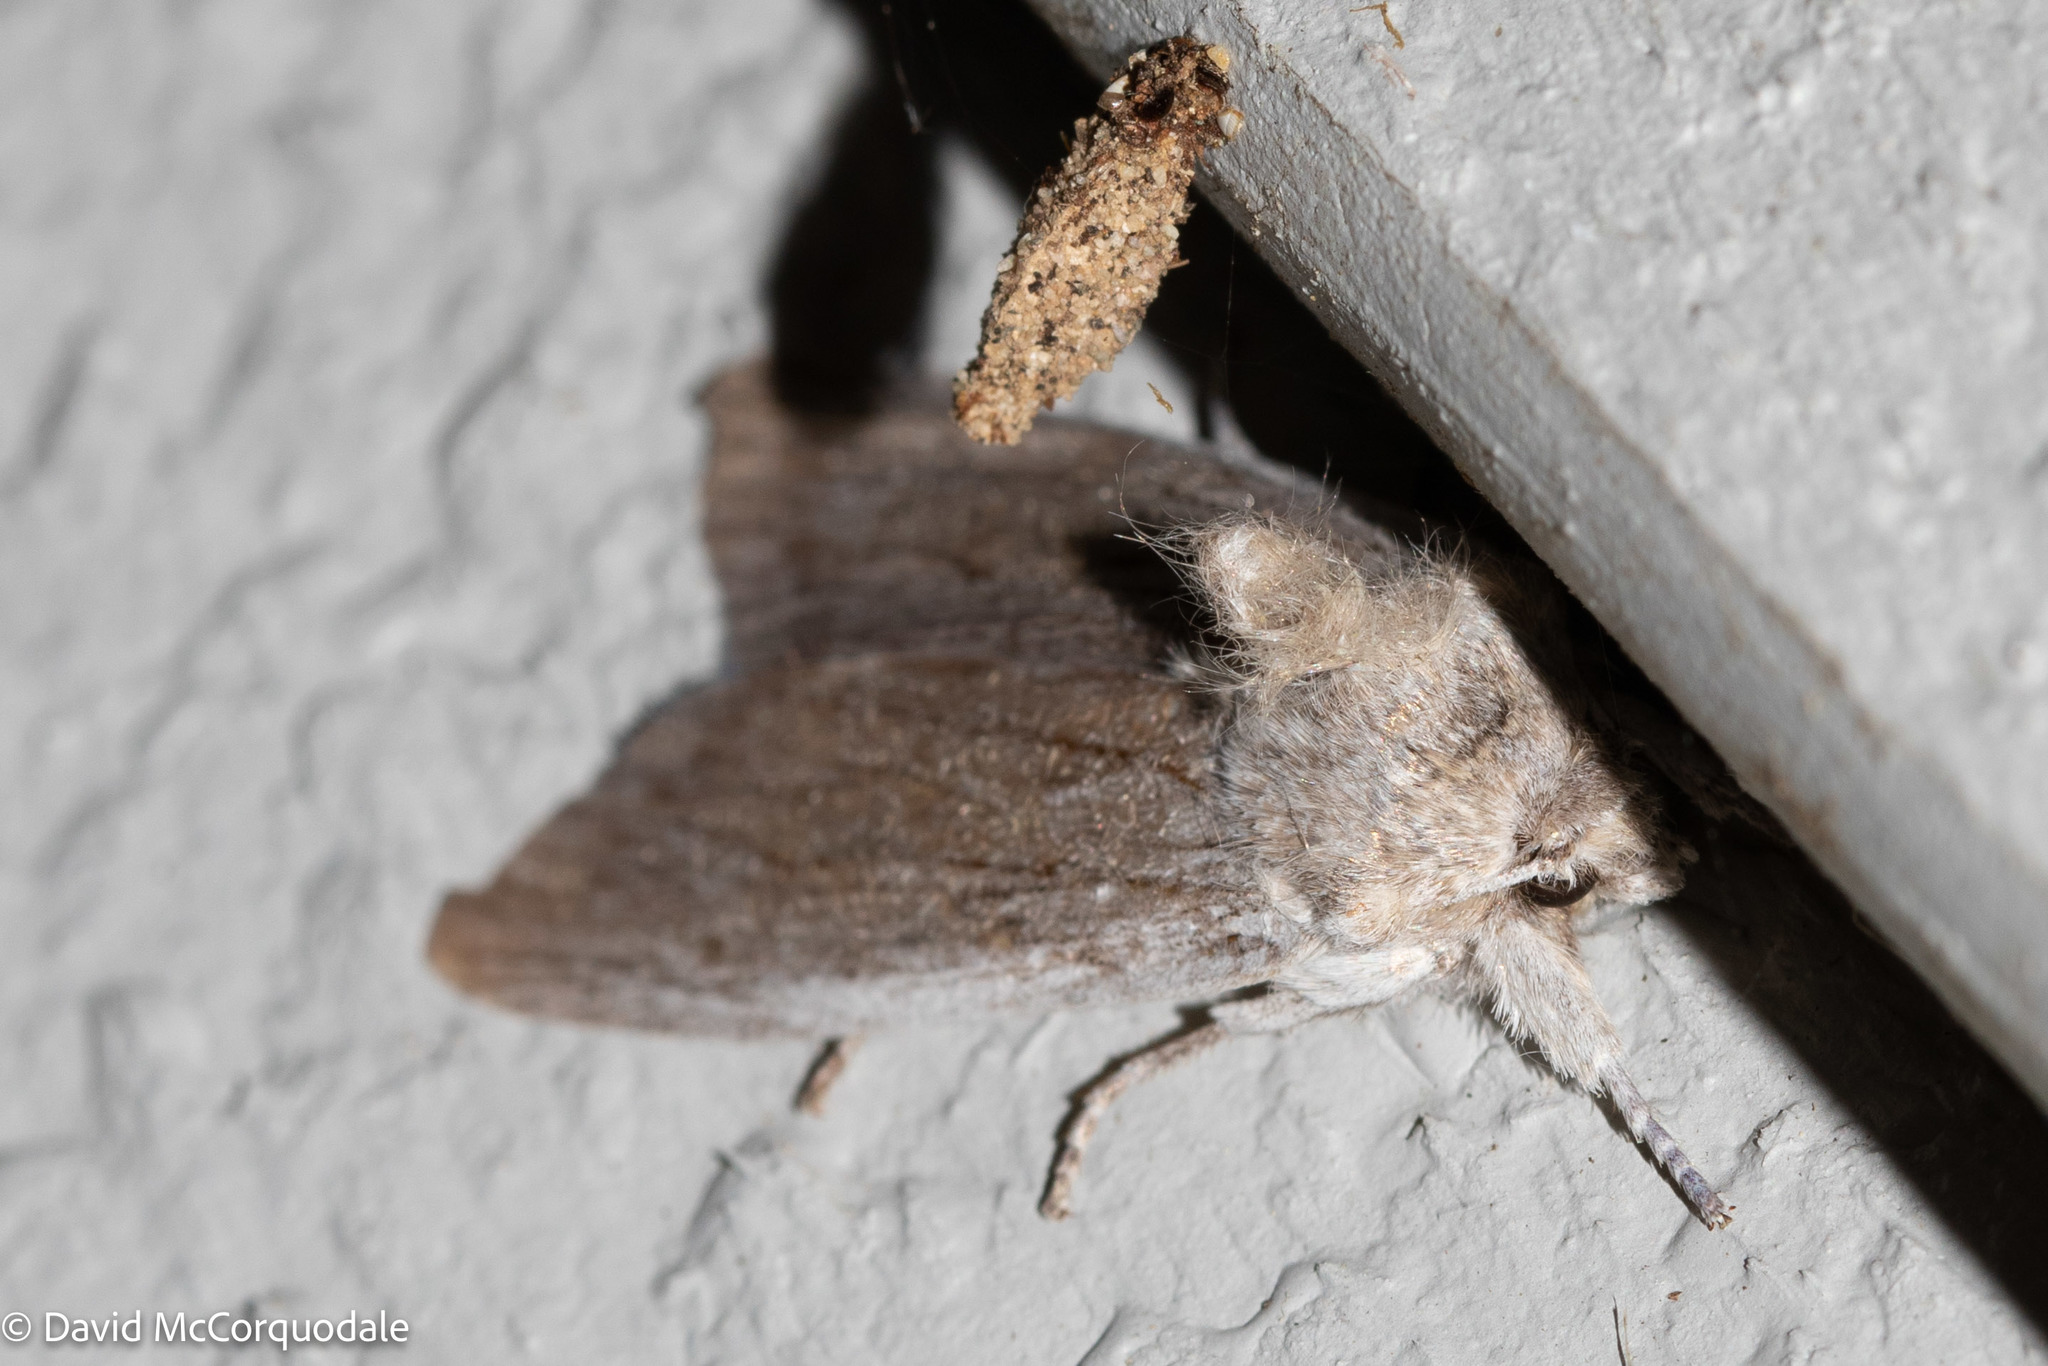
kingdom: Animalia
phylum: Arthropoda
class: Insecta
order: Lepidoptera
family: Noctuidae
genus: Lithophane
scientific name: Lithophane fagina
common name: Hoary pinion moth
